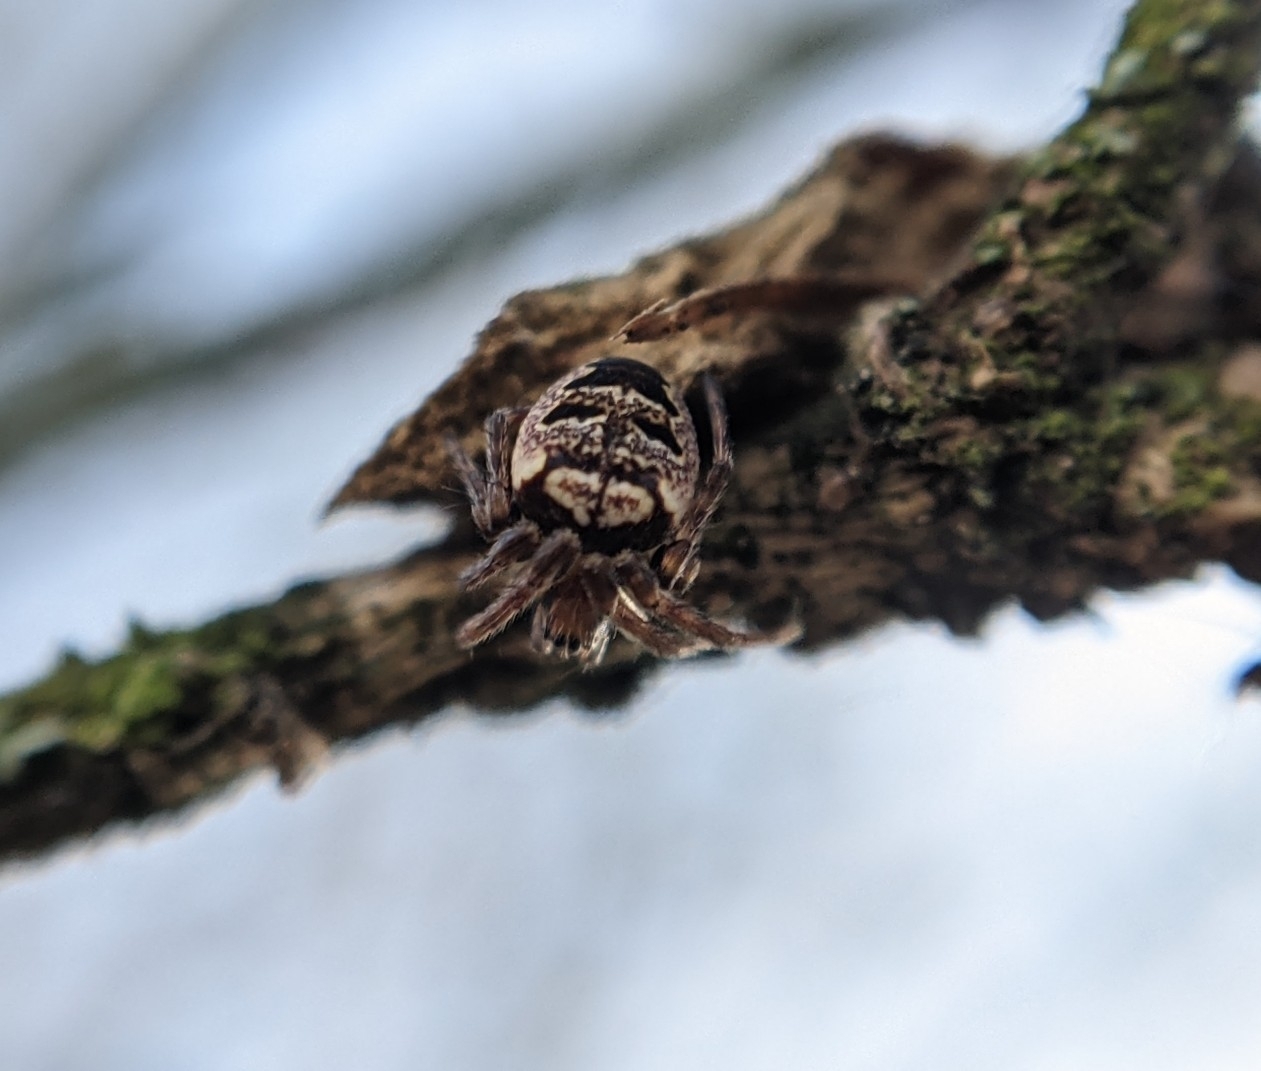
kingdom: Animalia
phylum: Arthropoda
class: Arachnida
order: Araneae
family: Araneidae
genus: Zilla
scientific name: Zilla diodia
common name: Zilla diodia
